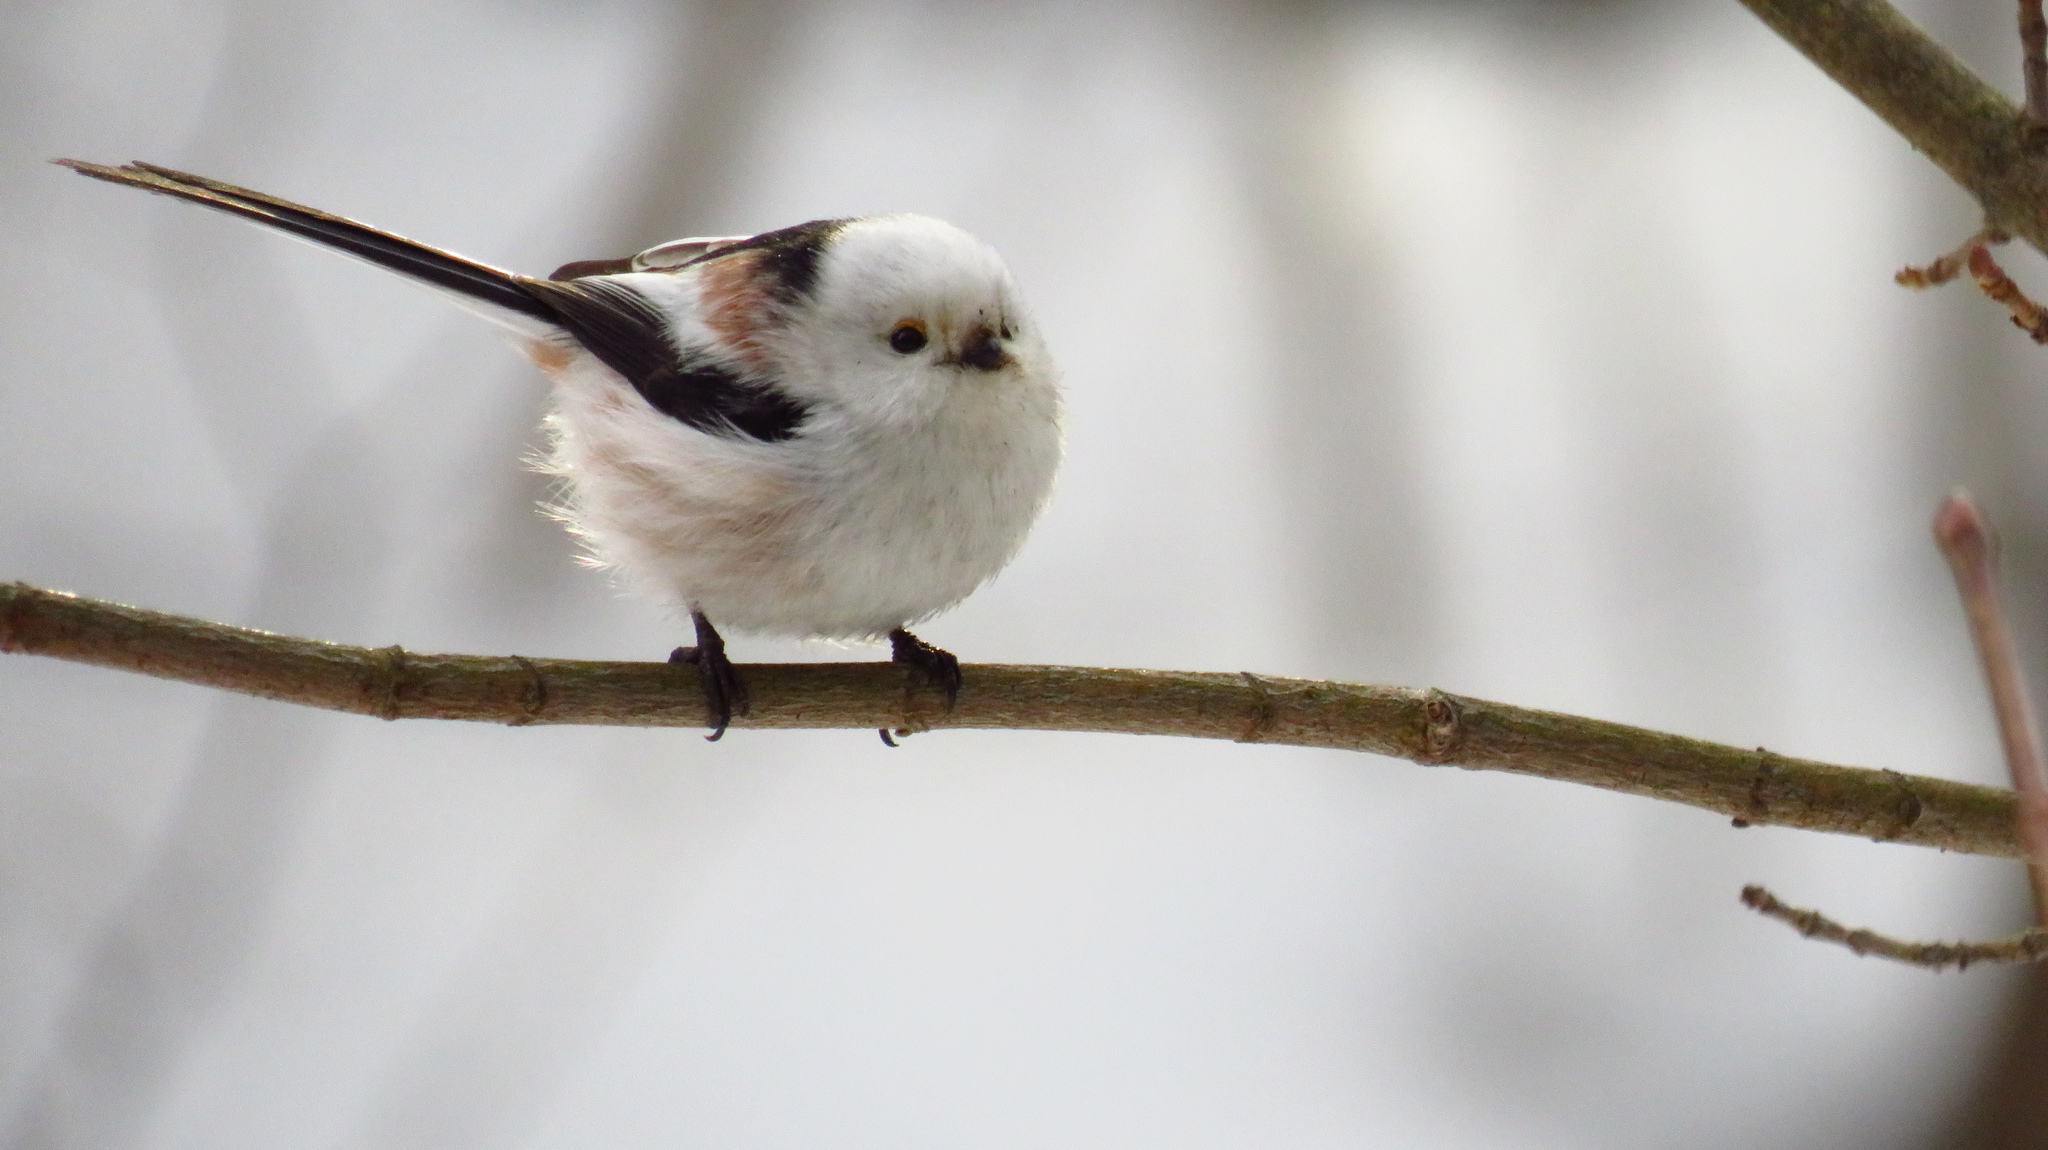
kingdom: Animalia
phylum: Chordata
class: Aves
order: Passeriformes
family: Aegithalidae
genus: Aegithalos
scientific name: Aegithalos caudatus
